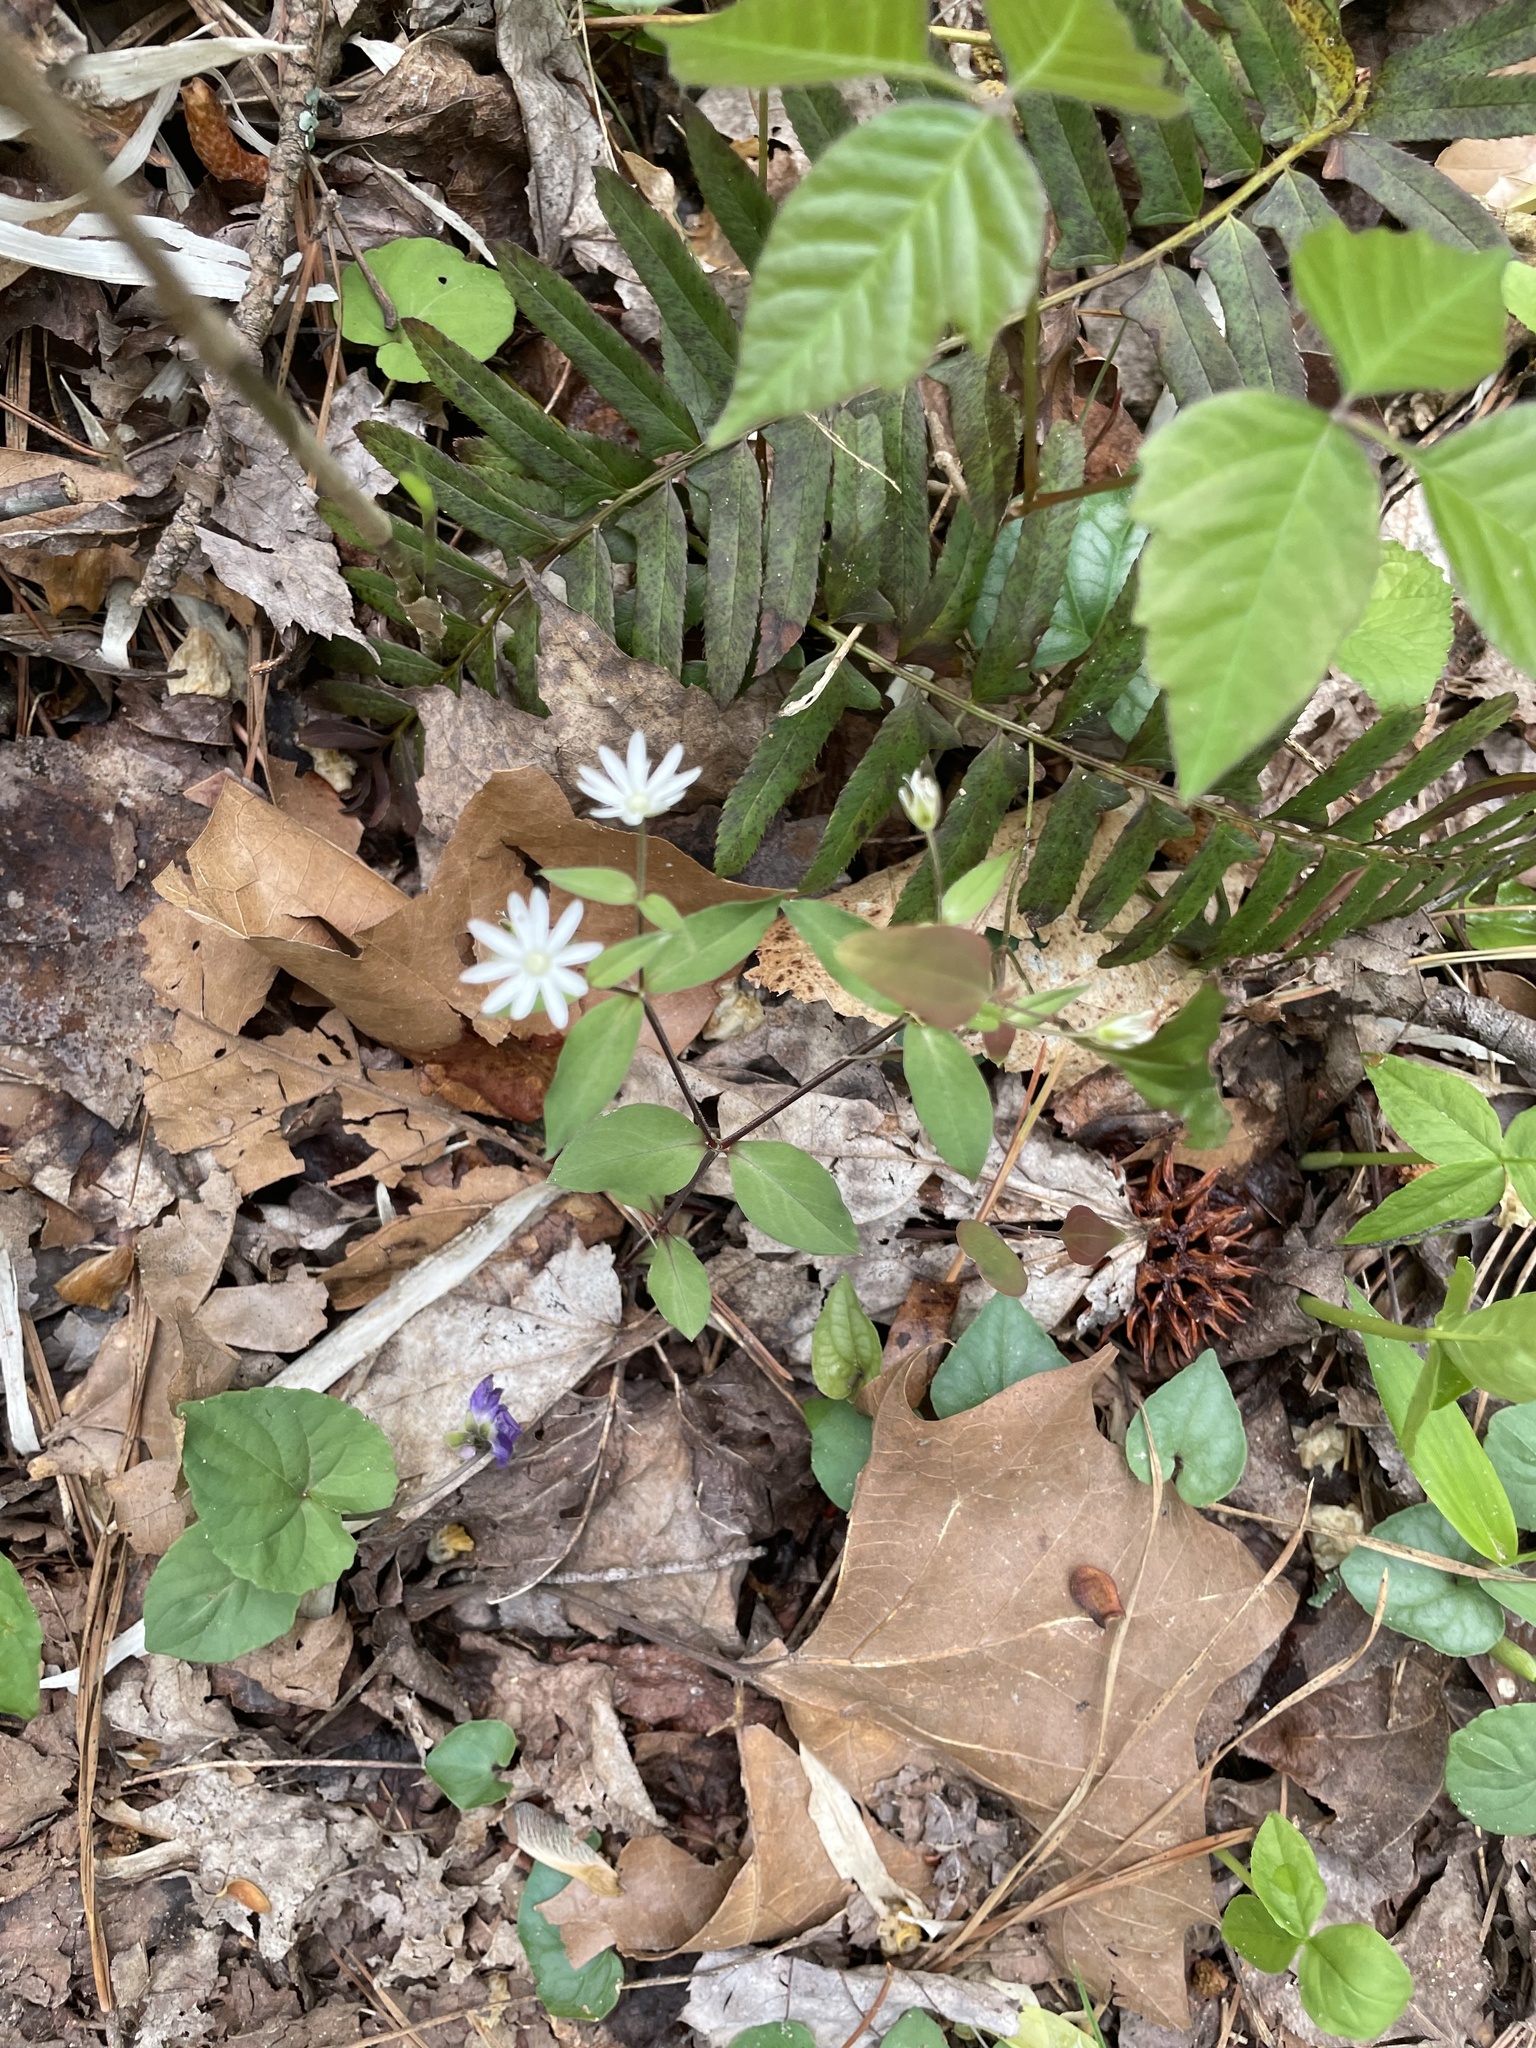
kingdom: Plantae
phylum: Tracheophyta
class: Magnoliopsida
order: Caryophyllales
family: Caryophyllaceae
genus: Stellaria
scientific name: Stellaria pubera
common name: Star chickweed
